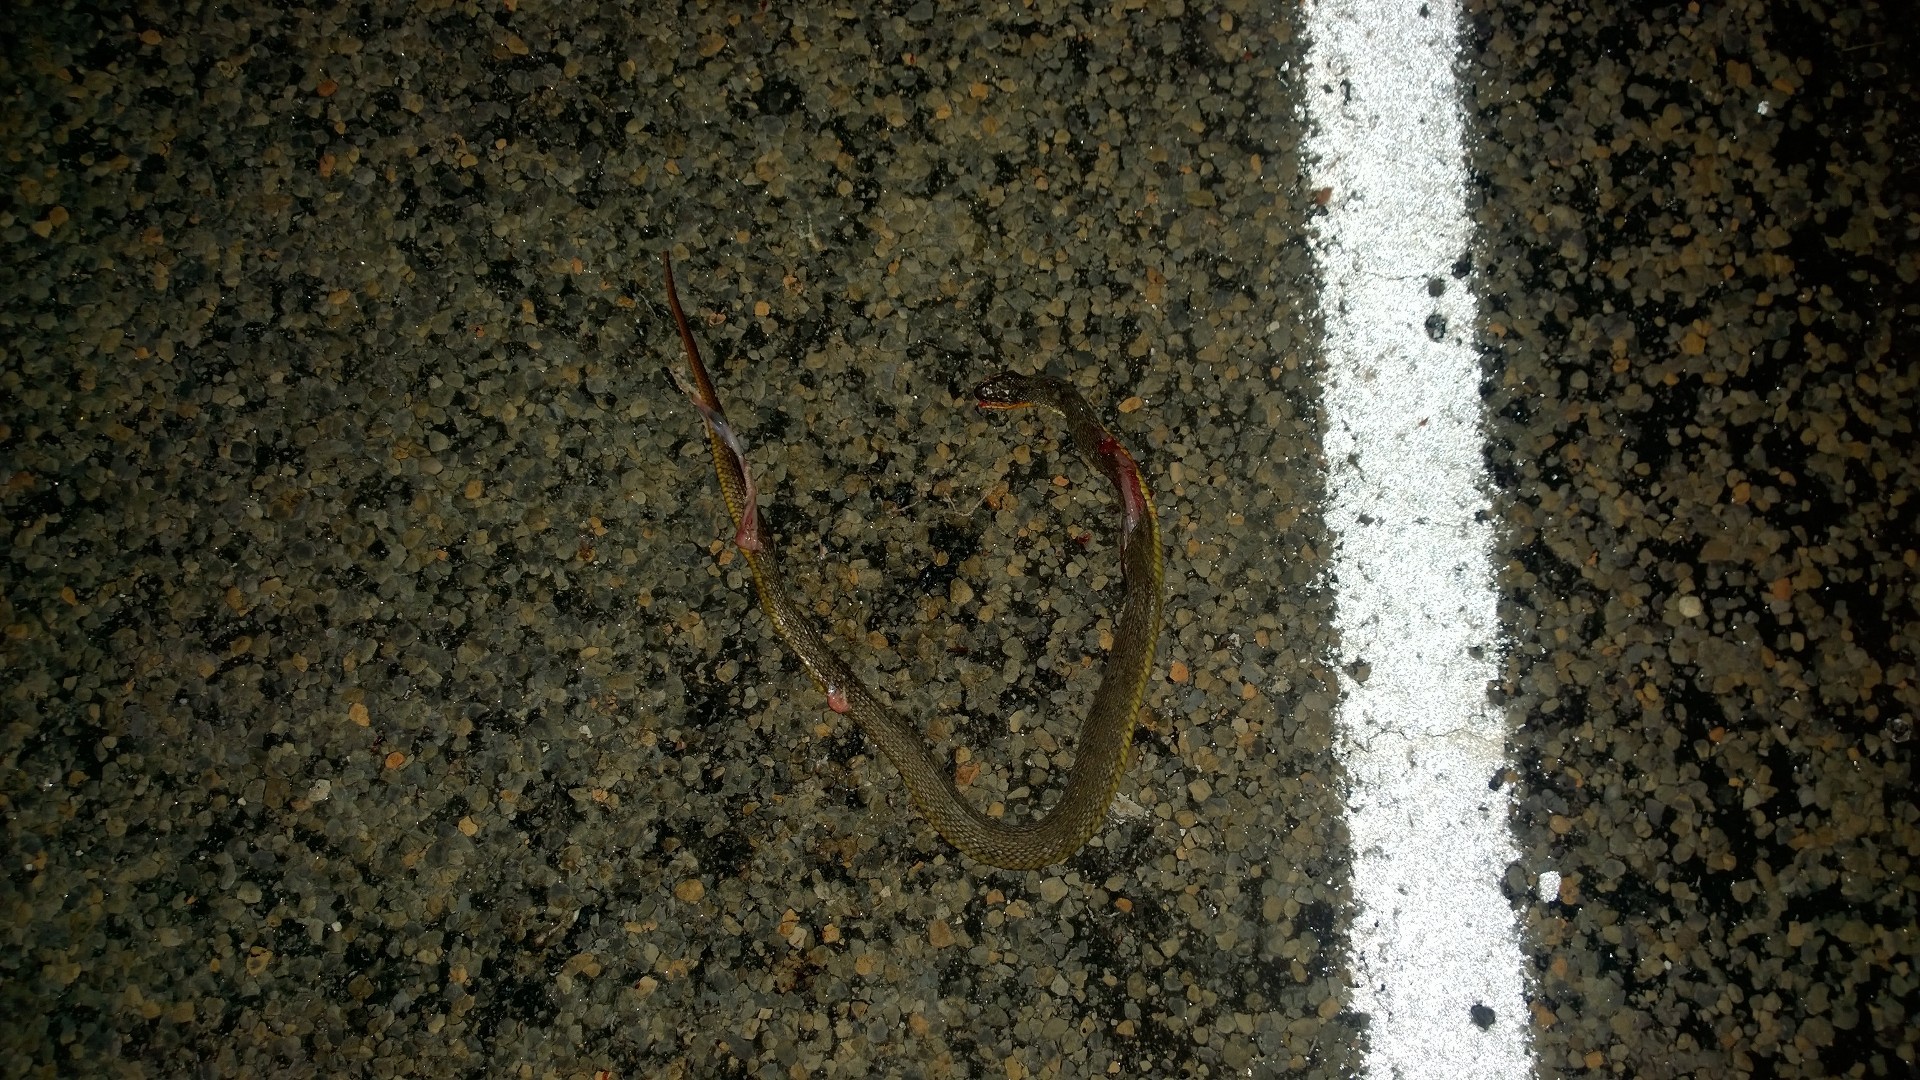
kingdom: Animalia
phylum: Chordata
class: Squamata
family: Colubridae
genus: Nerodia
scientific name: Nerodia erythrogaster
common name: Plainbelly water snake
